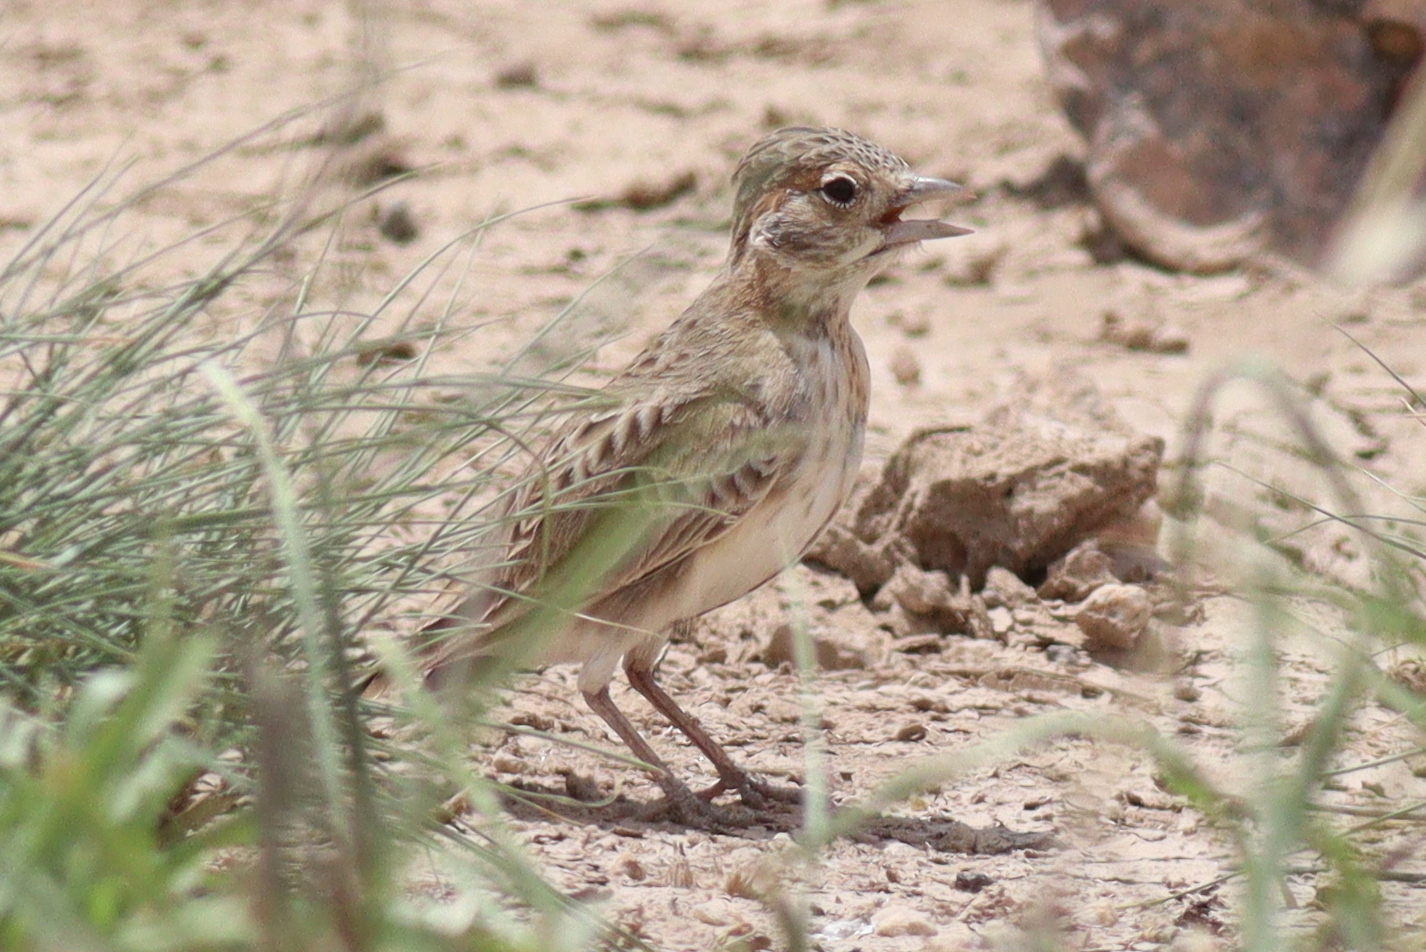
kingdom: Animalia
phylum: Chordata
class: Aves
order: Passeriformes
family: Alaudidae
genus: Eremopterix
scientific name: Eremopterix leucopareia
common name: Fischer's sparrow-lark
